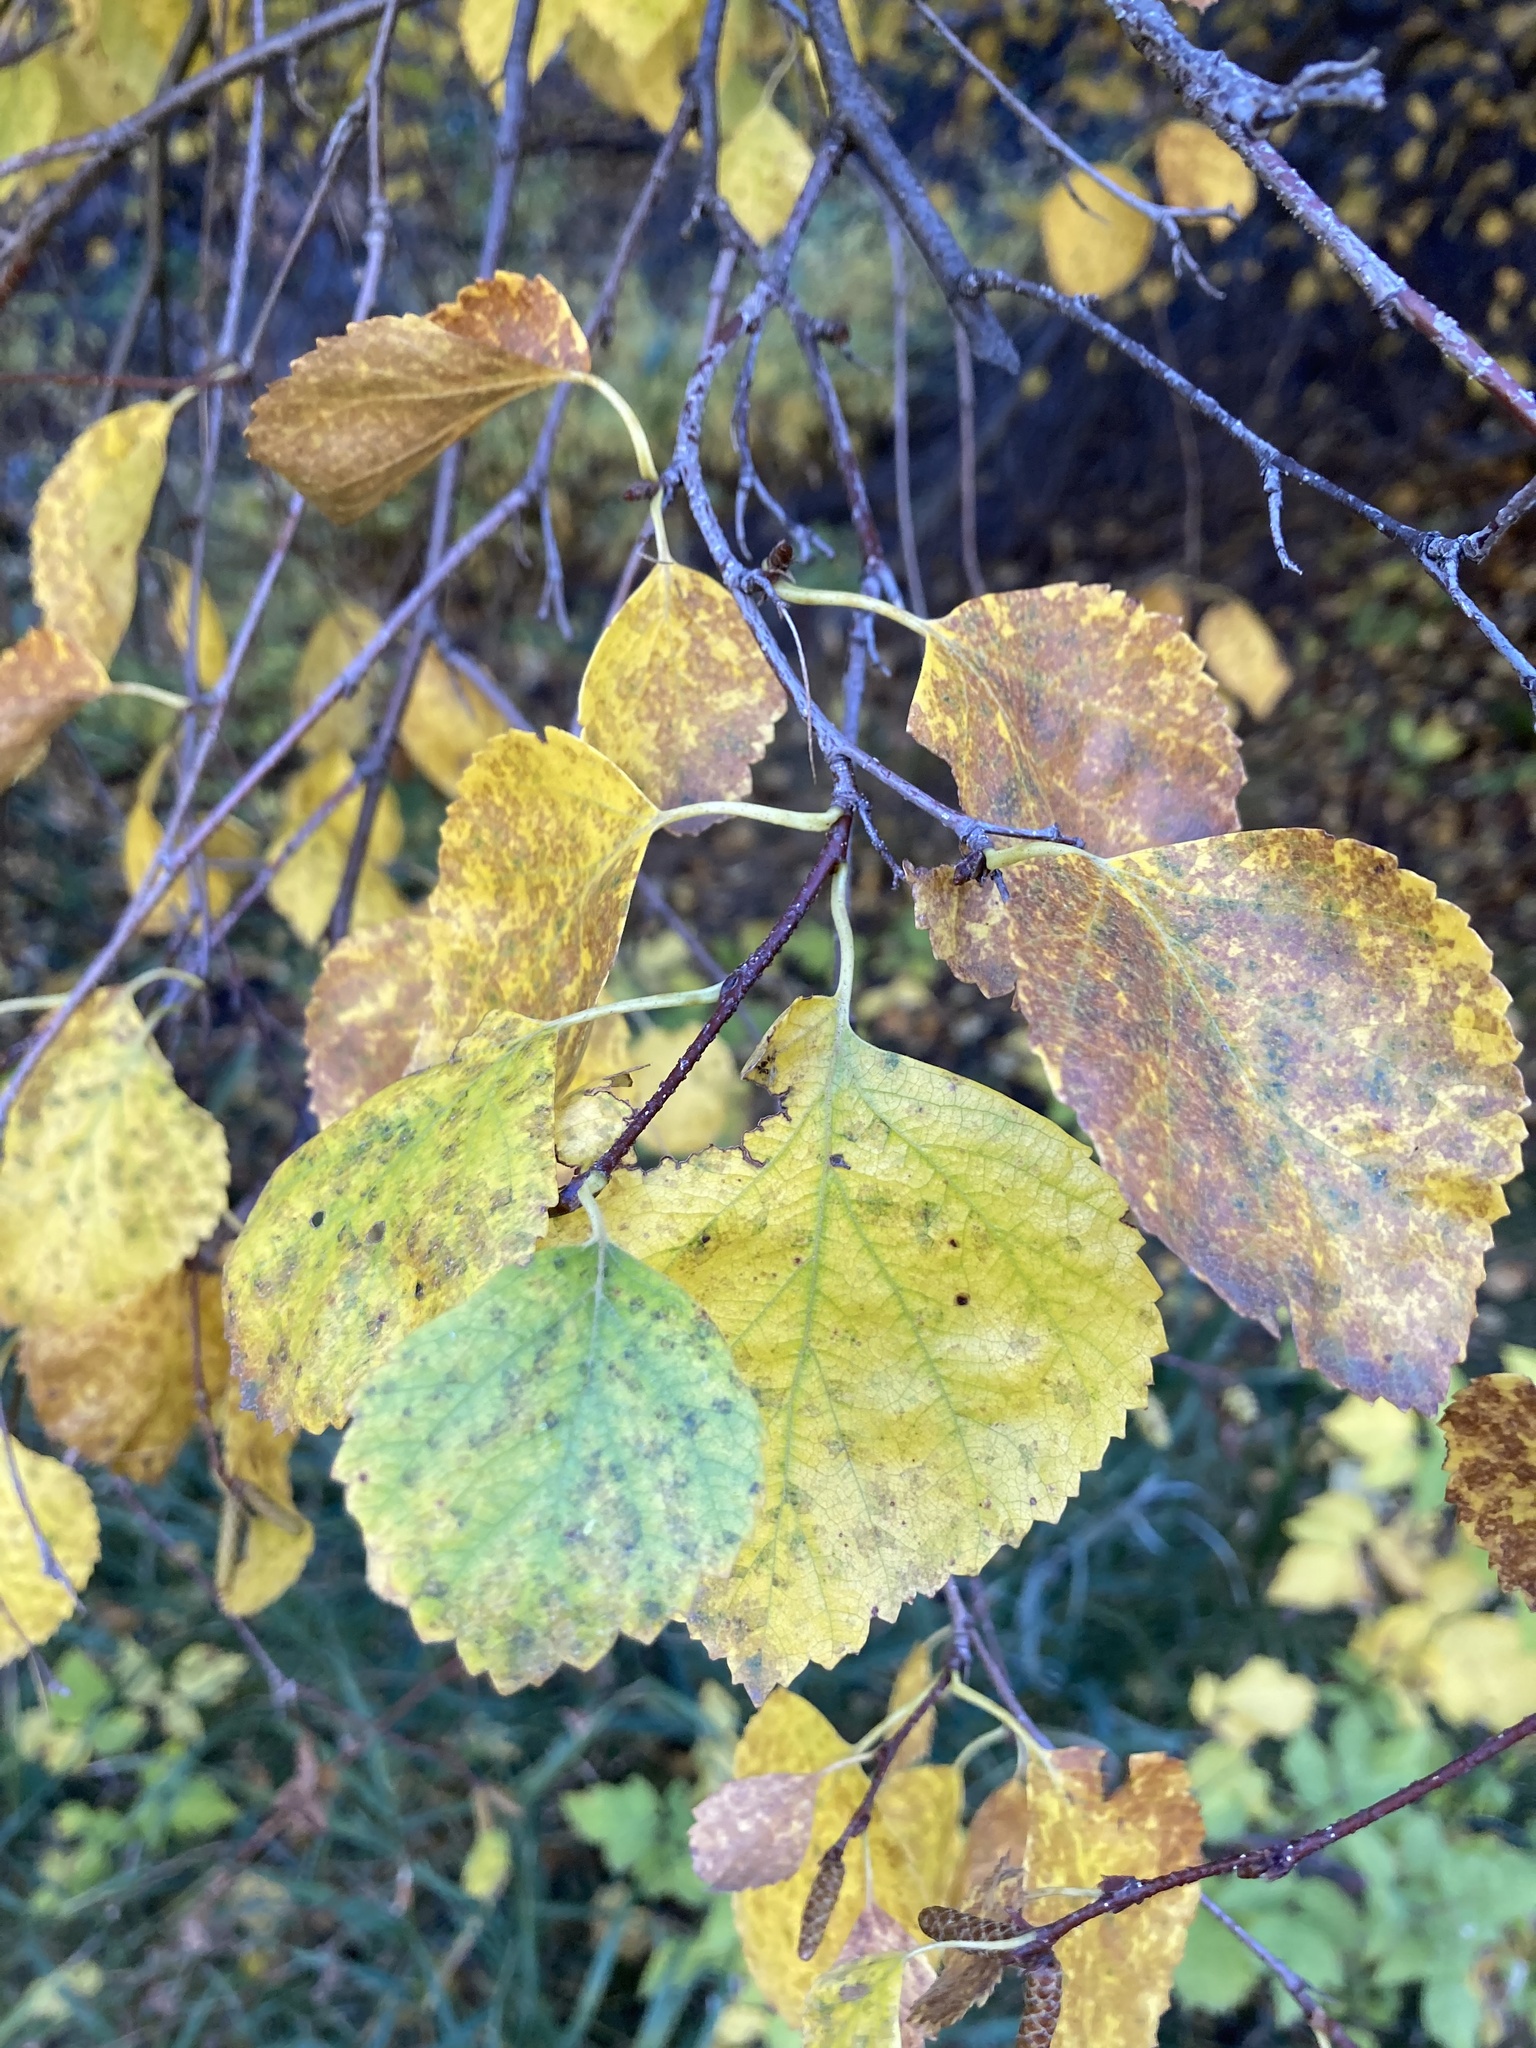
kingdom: Plantae
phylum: Tracheophyta
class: Magnoliopsida
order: Fagales
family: Betulaceae
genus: Betula
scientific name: Betula occidentalis
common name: River birch
